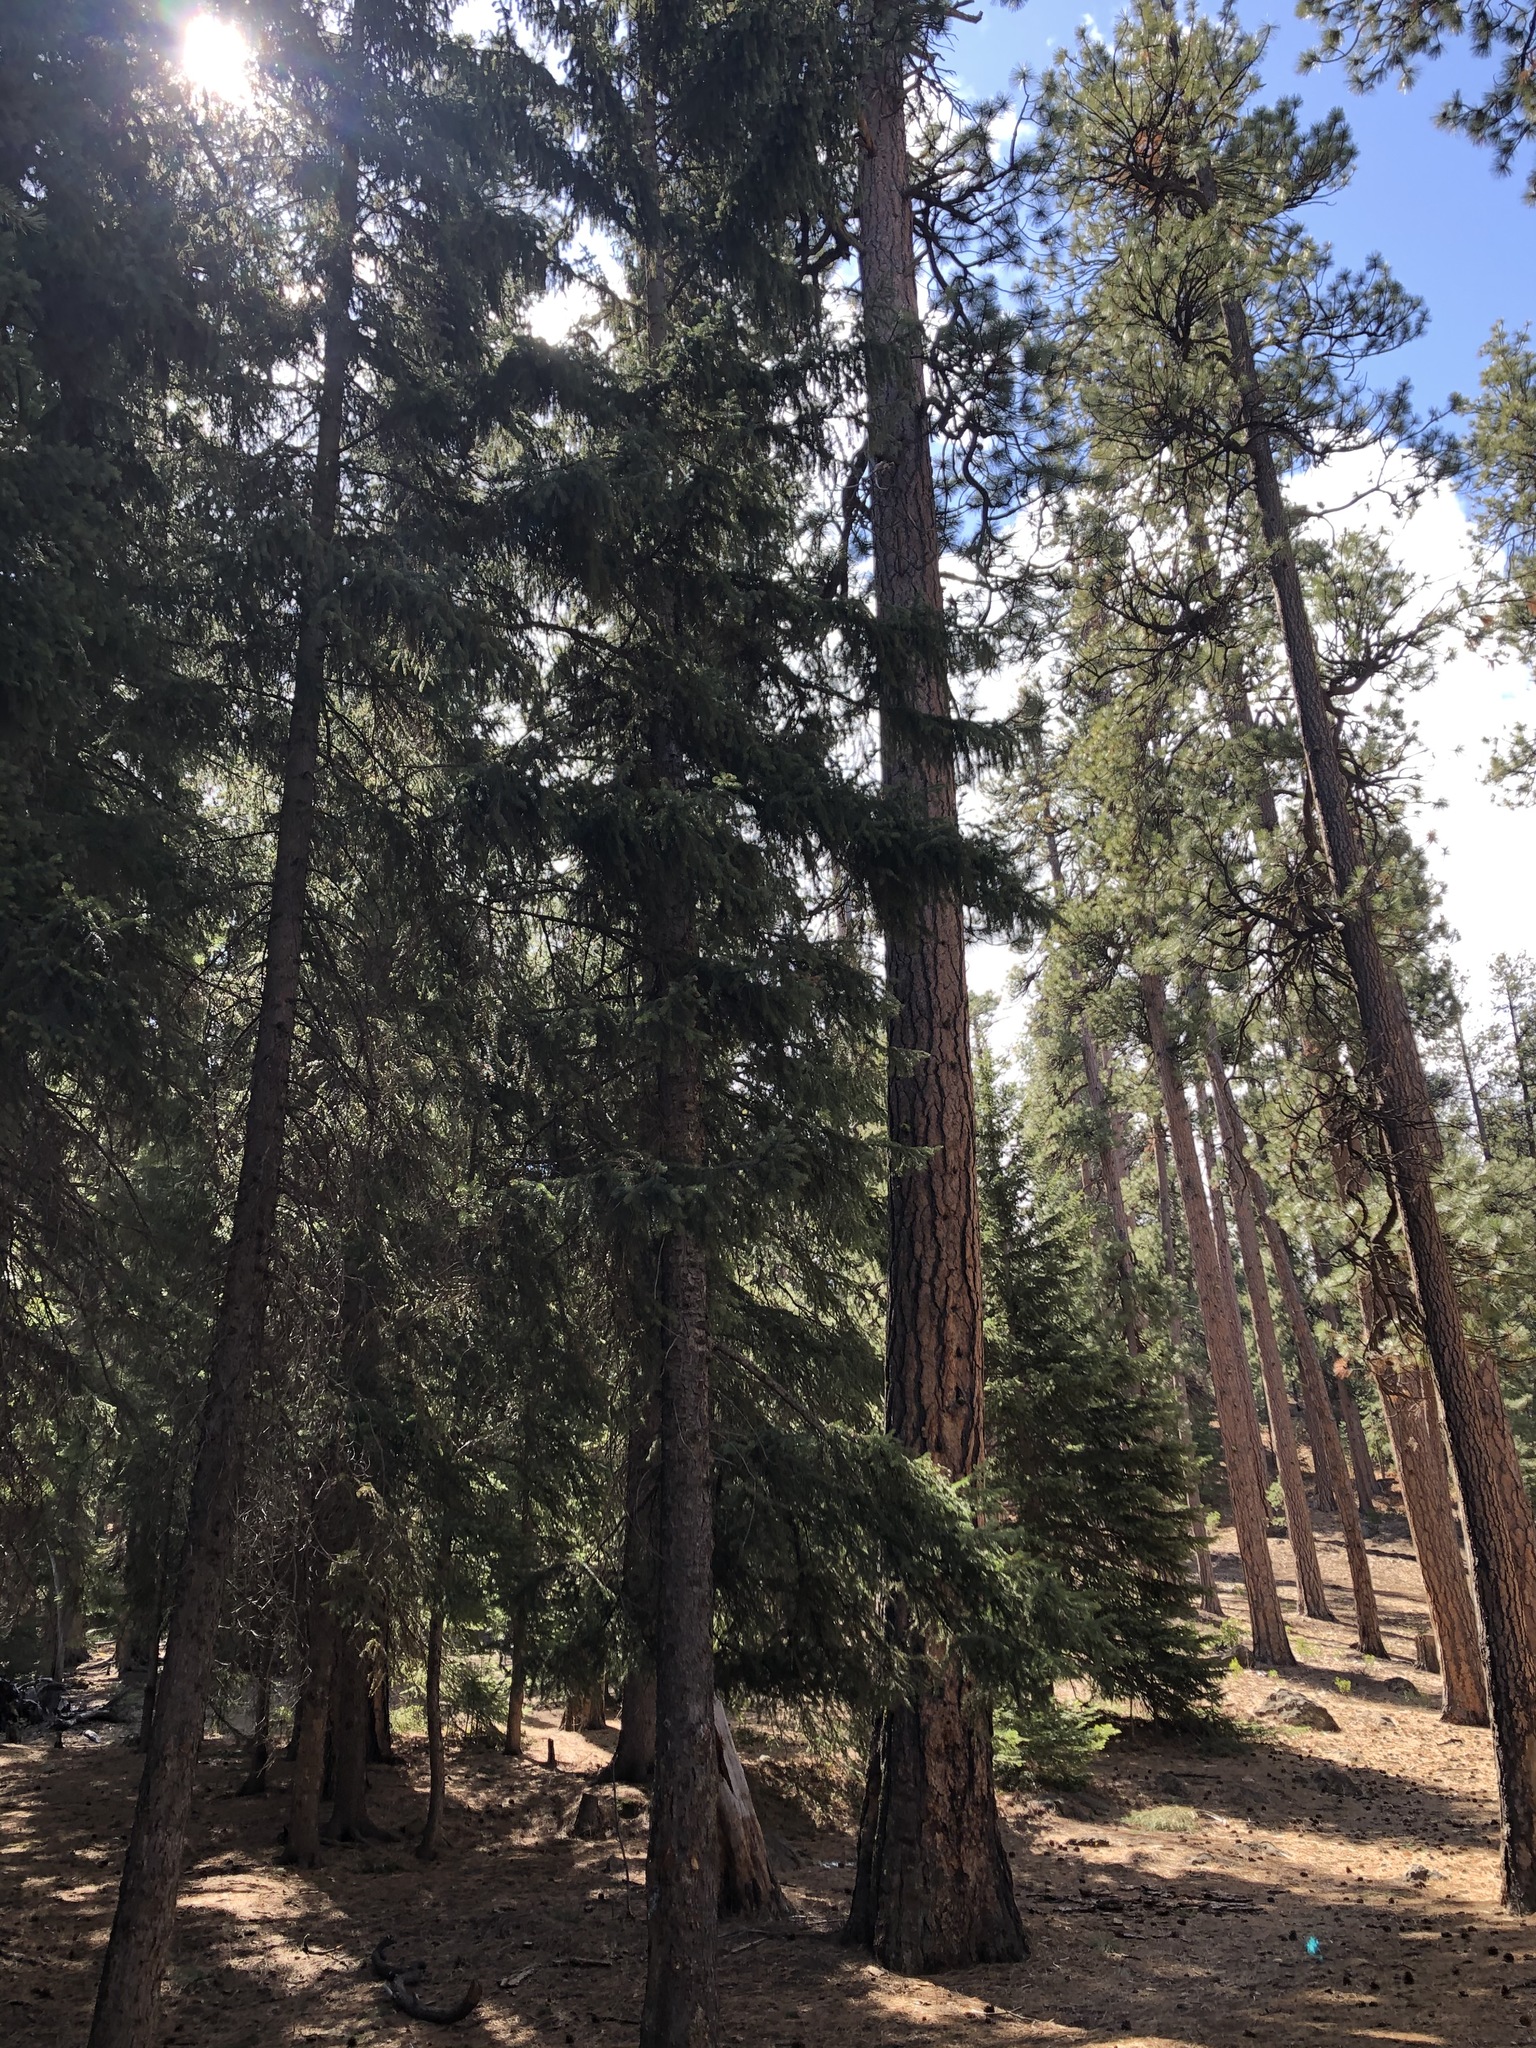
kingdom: Plantae
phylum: Tracheophyta
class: Pinopsida
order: Pinales
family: Pinaceae
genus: Picea
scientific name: Picea engelmannii
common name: Engelmann spruce
